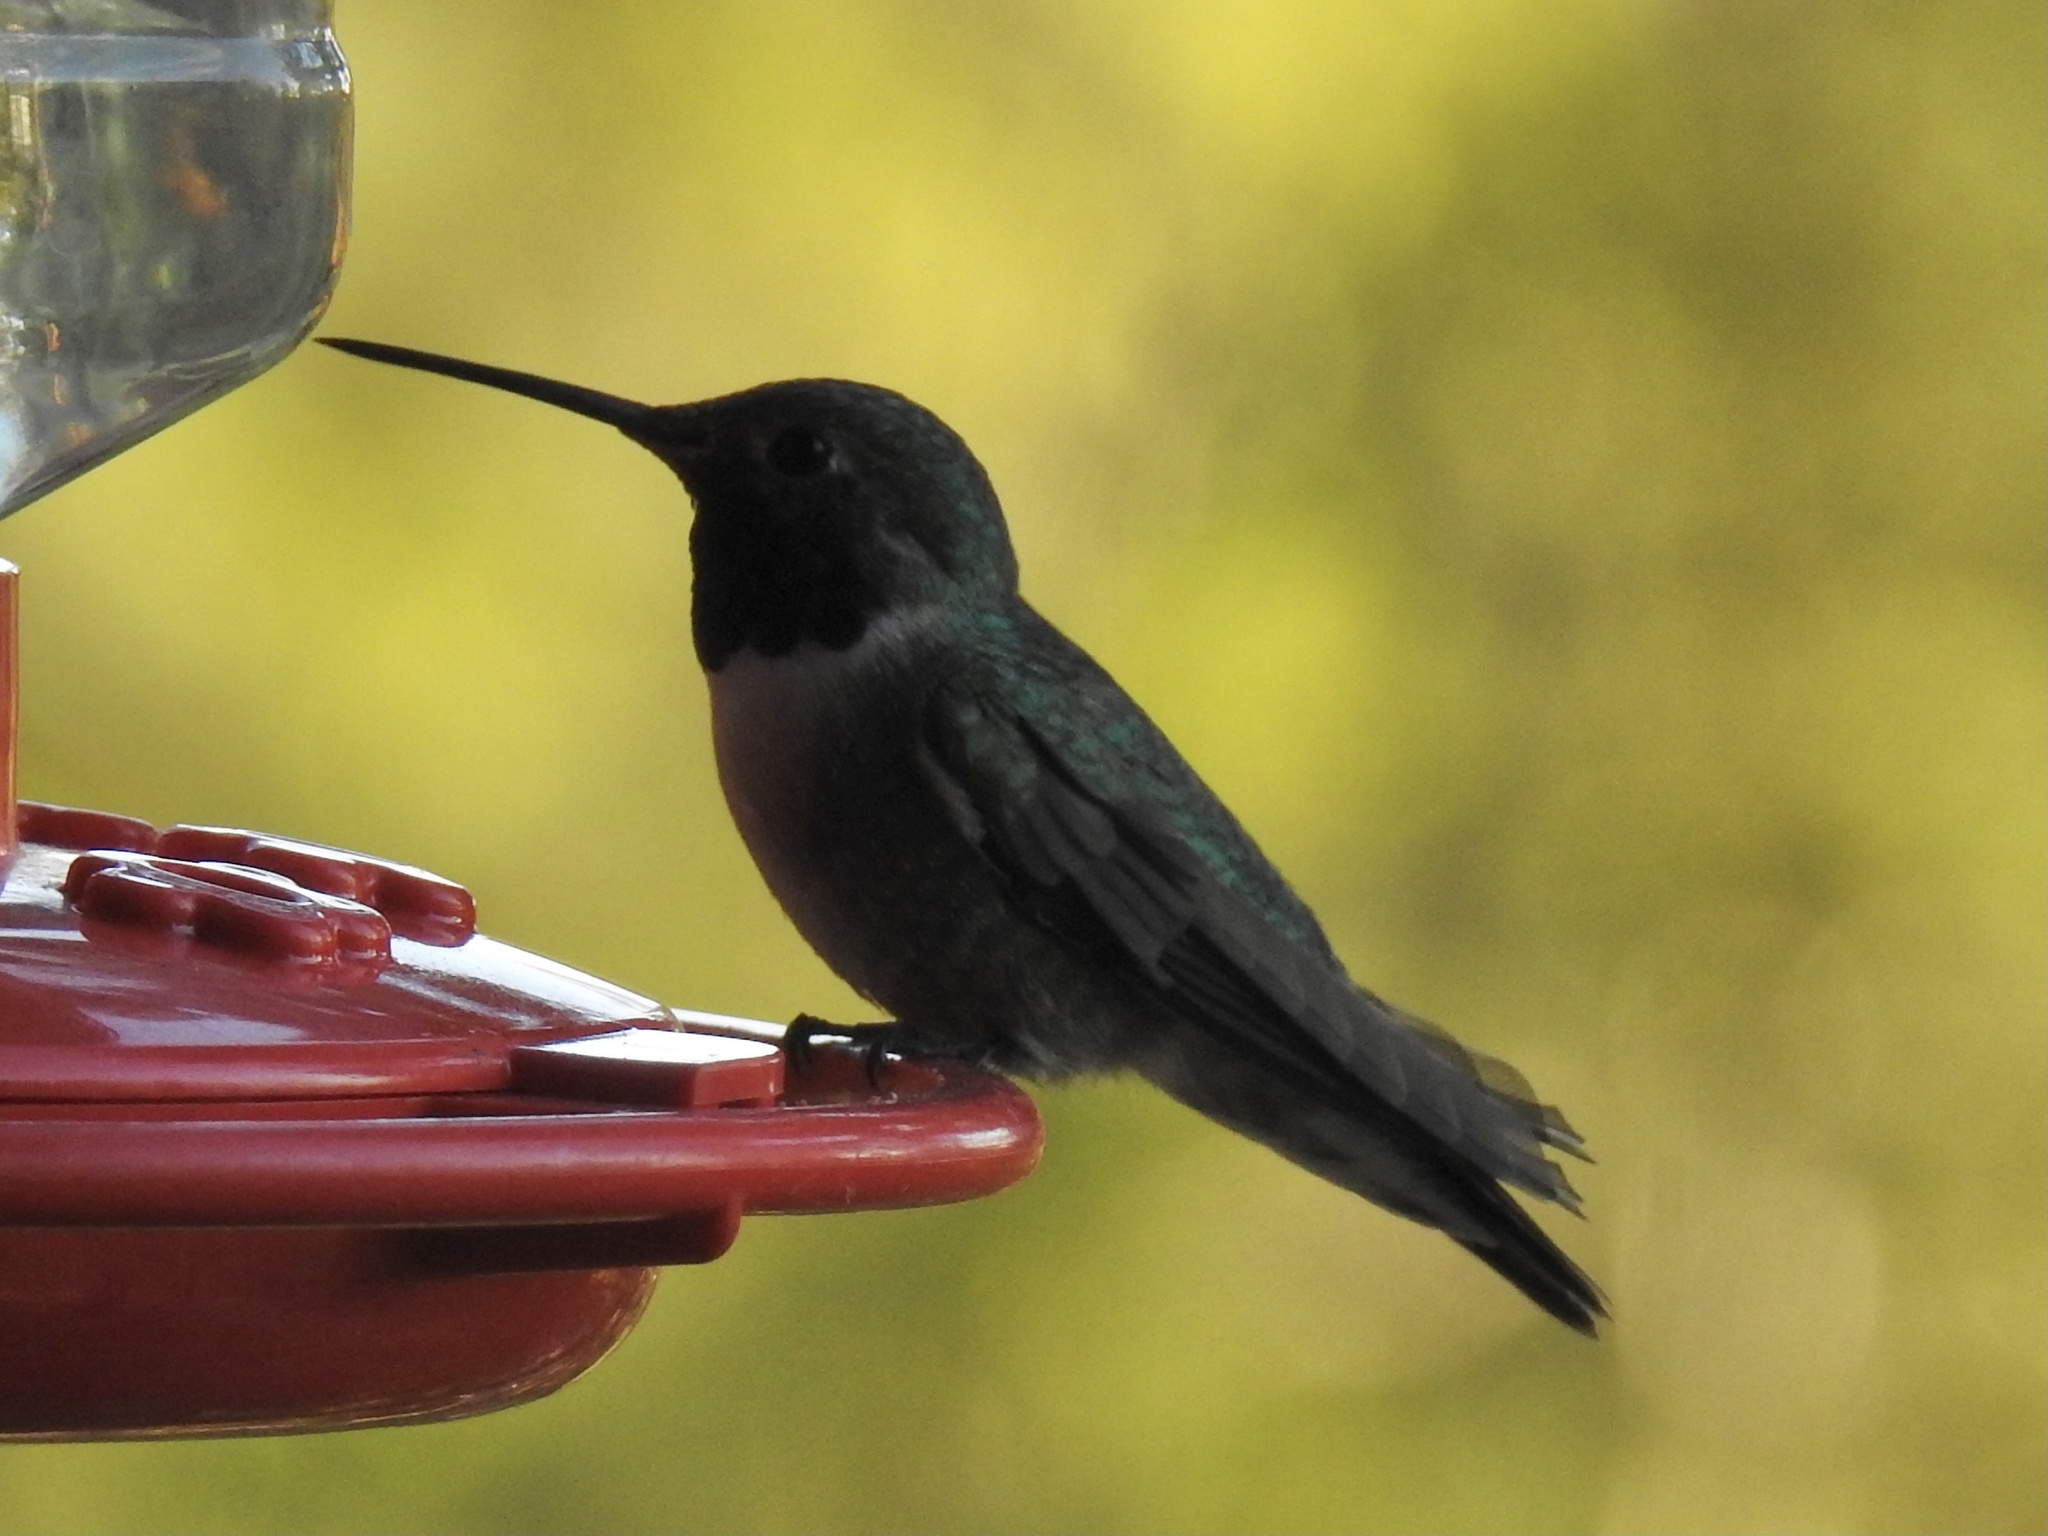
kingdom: Animalia
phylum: Chordata
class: Aves
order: Apodiformes
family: Trochilidae
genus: Selasphorus
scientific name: Selasphorus platycercus
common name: Broad-tailed hummingbird
